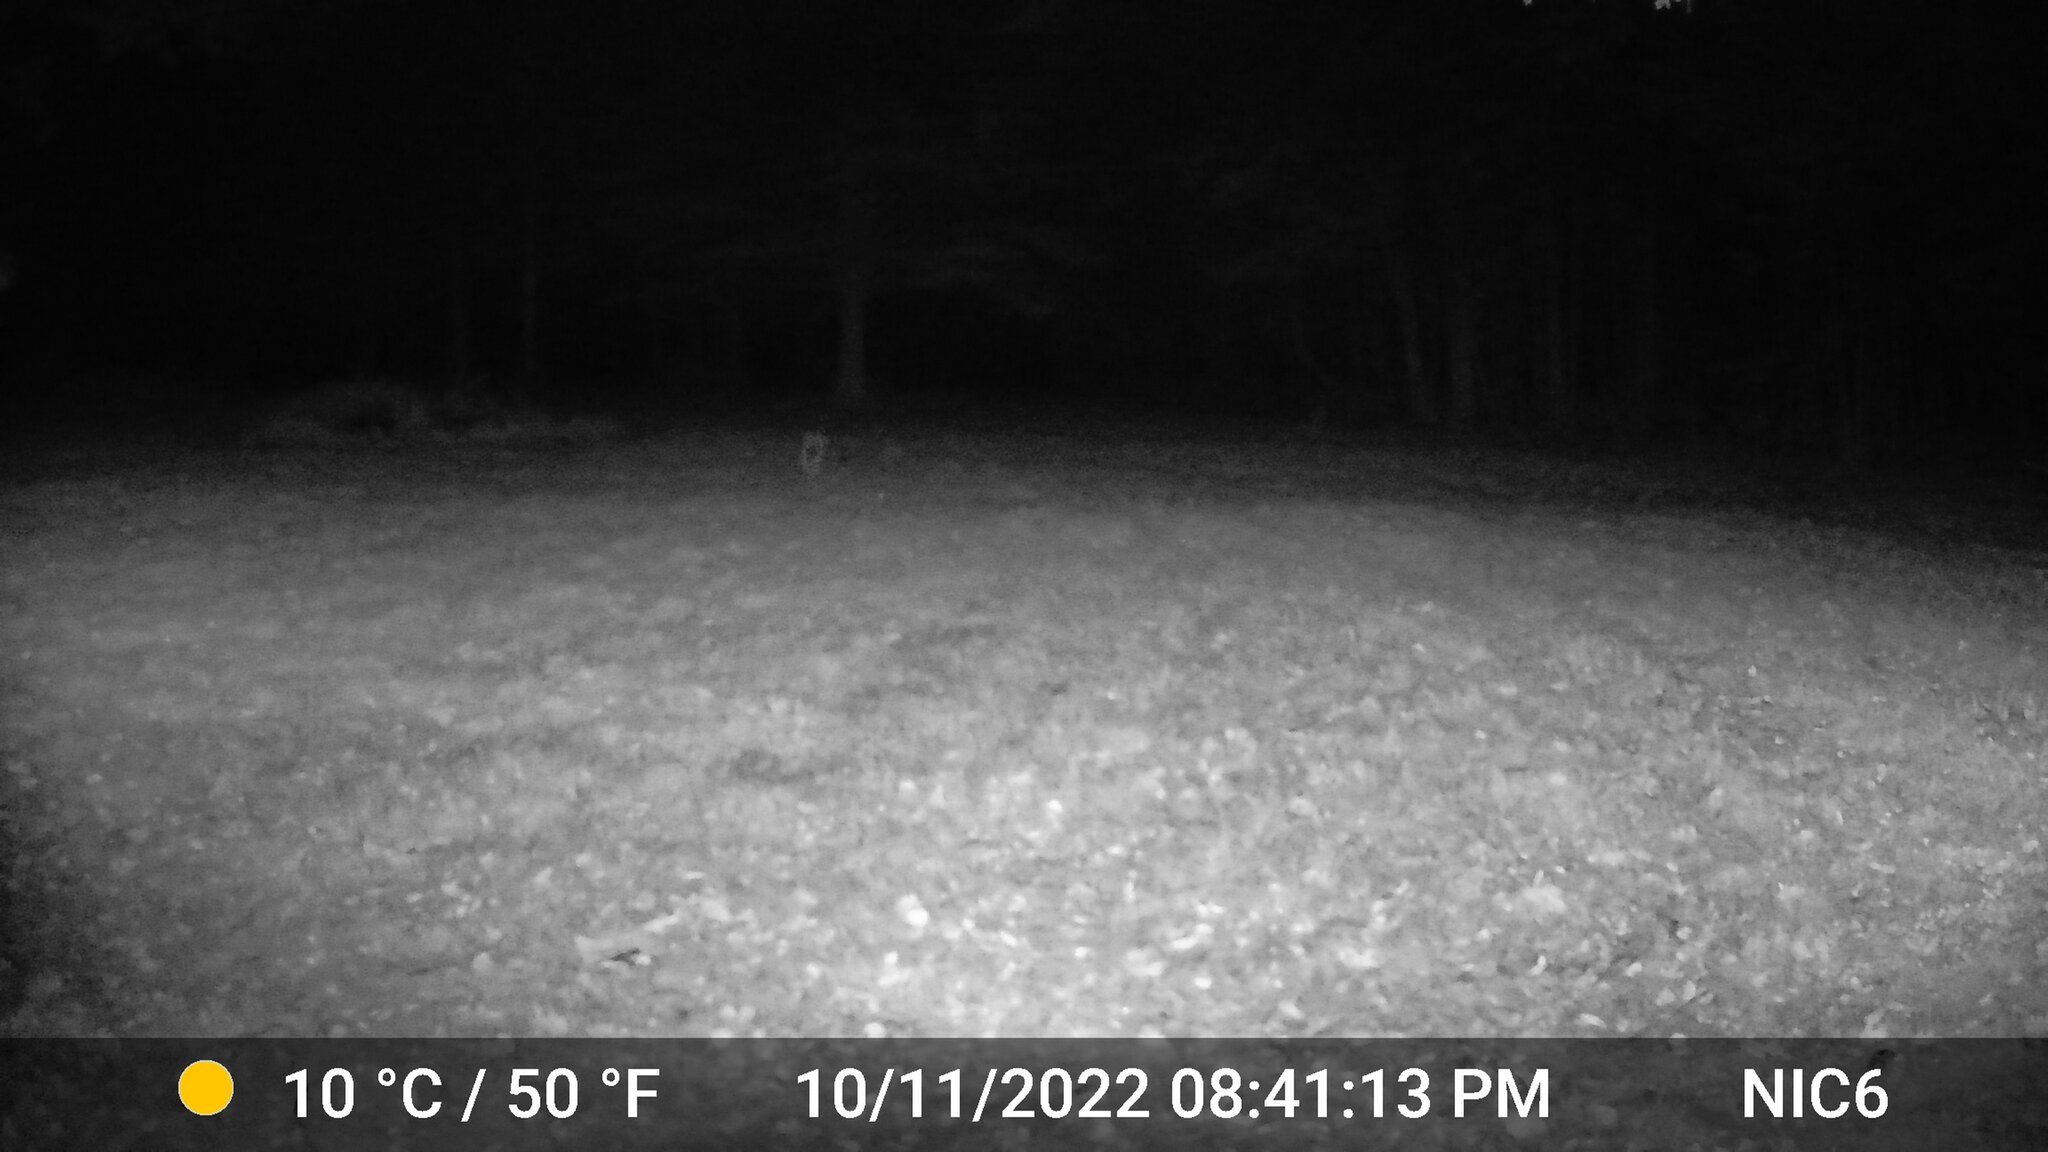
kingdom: Animalia
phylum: Chordata
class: Mammalia
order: Artiodactyla
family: Cervidae
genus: Odocoileus
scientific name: Odocoileus virginianus
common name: White-tailed deer
